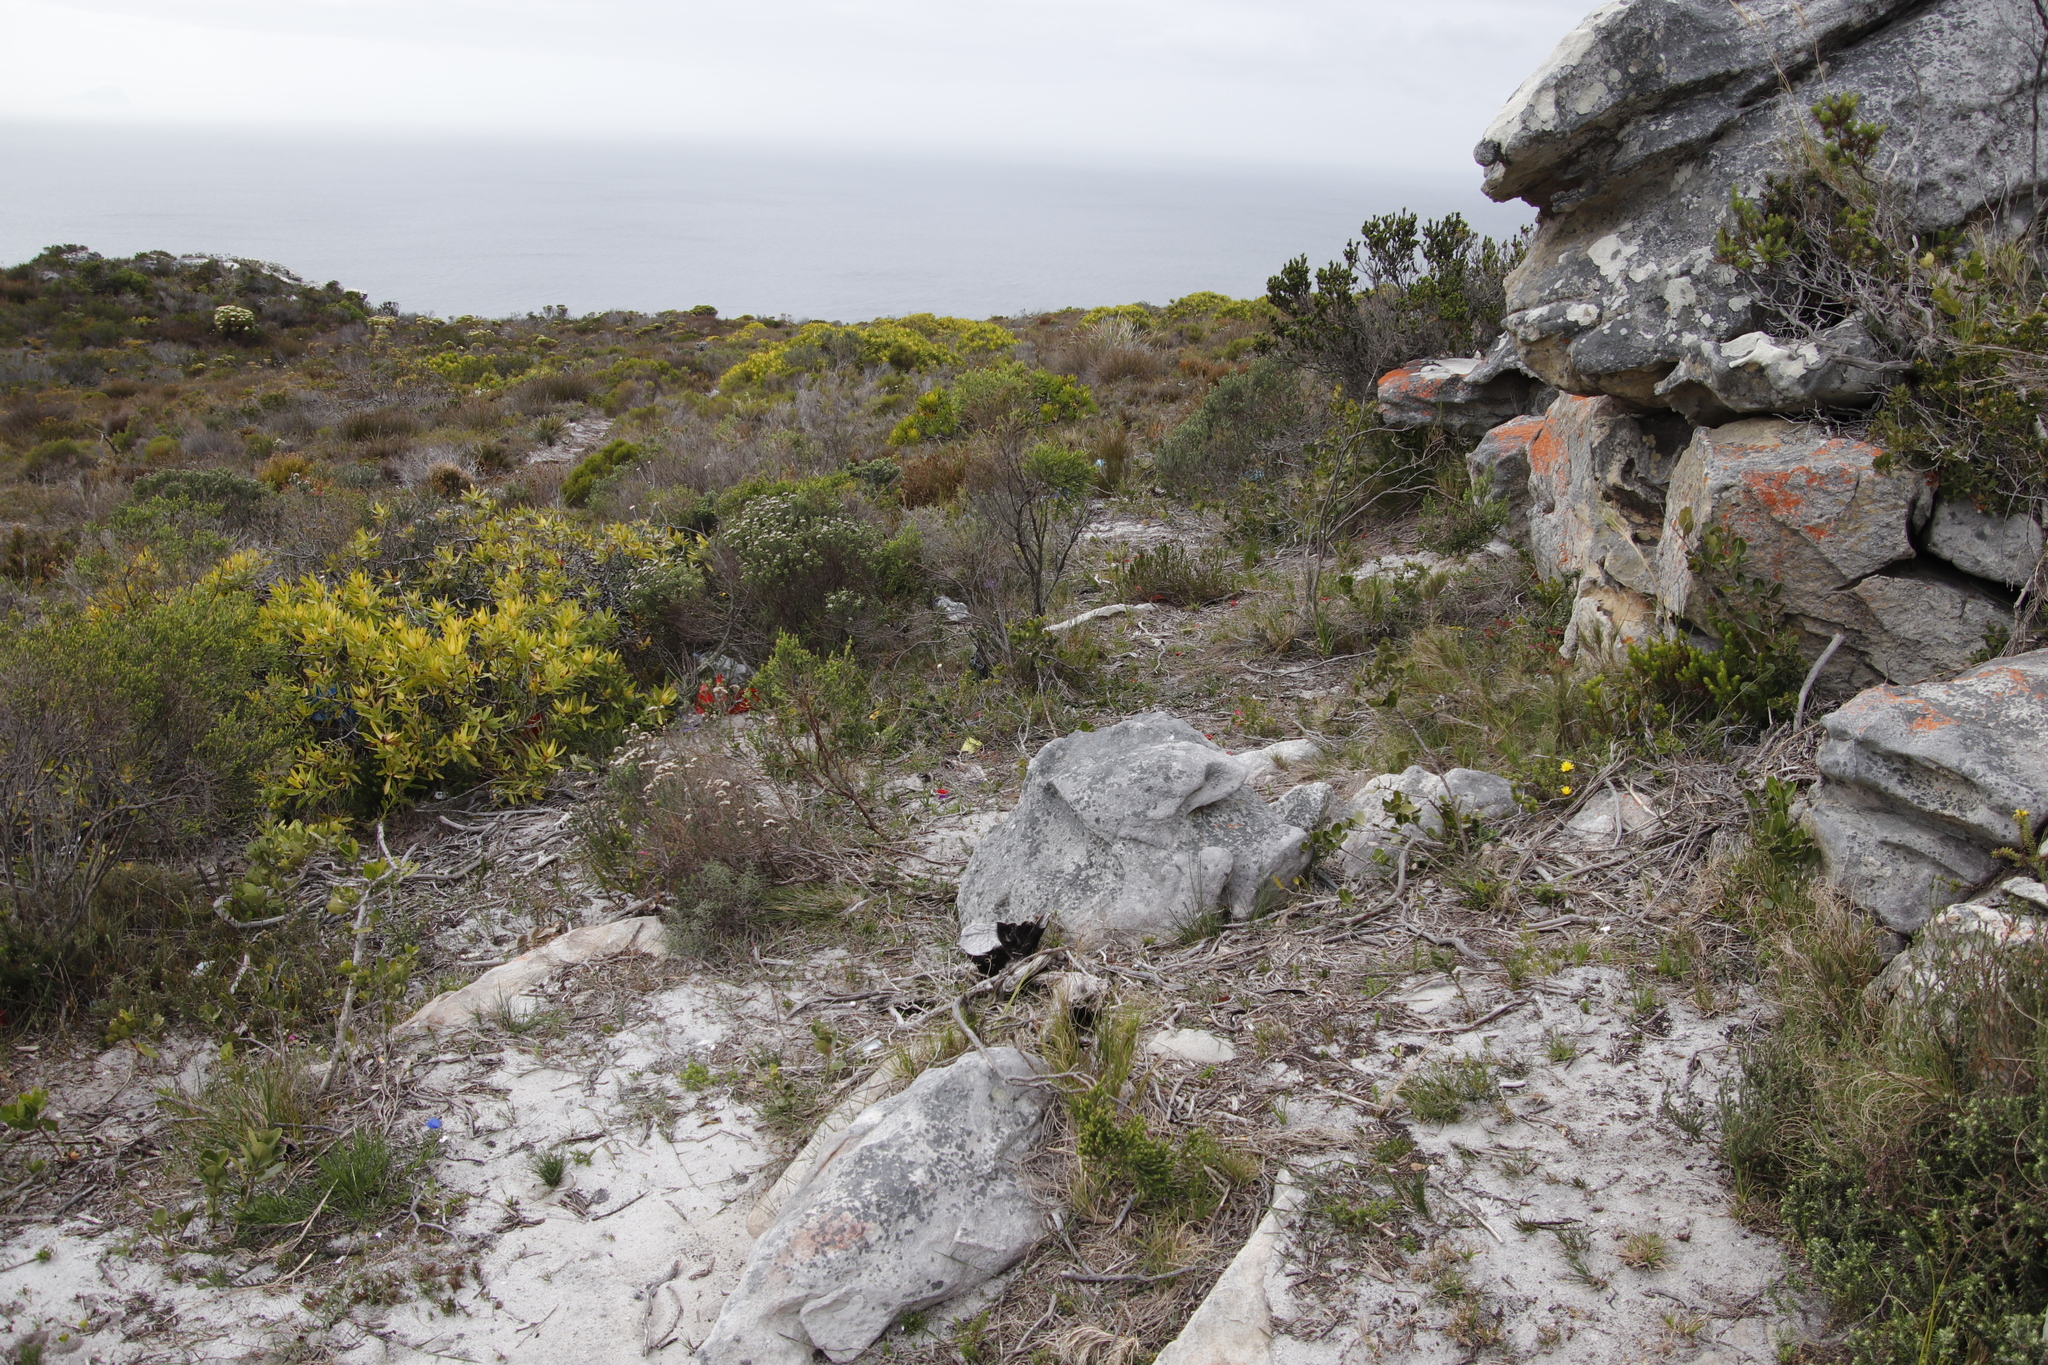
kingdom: Plantae
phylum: Tracheophyta
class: Magnoliopsida
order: Proteales
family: Proteaceae
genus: Leucadendron
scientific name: Leucadendron laureolum
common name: Golden sunshinebush
